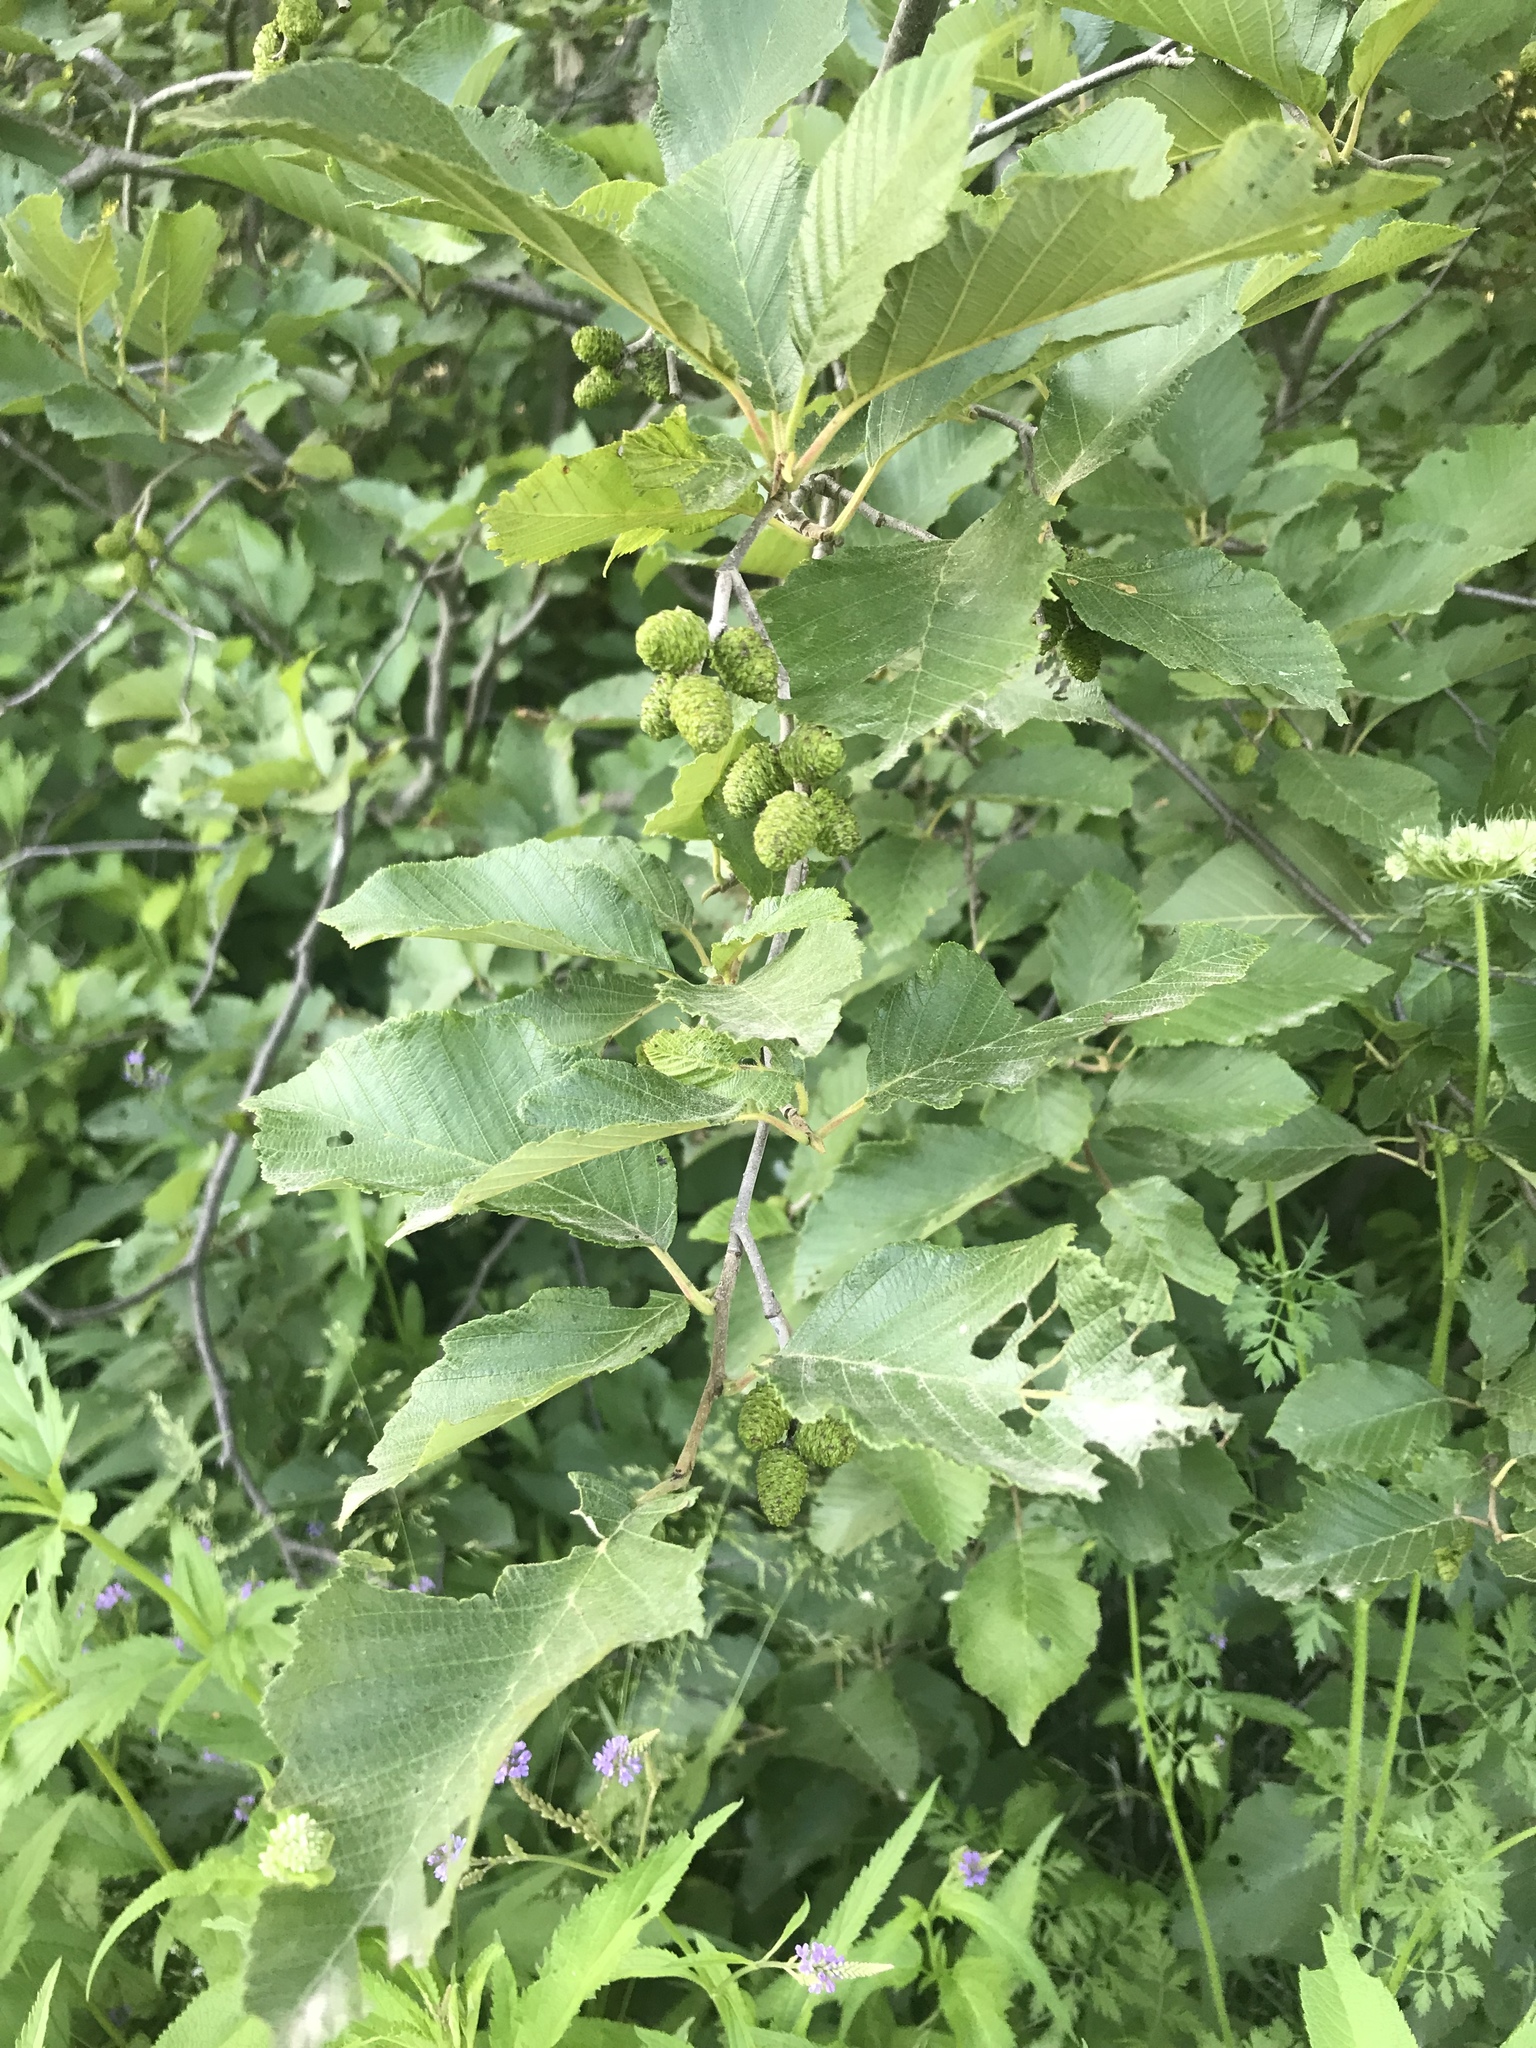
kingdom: Plantae
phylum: Tracheophyta
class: Magnoliopsida
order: Fagales
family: Betulaceae
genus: Alnus
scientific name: Alnus incana
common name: Grey alder
